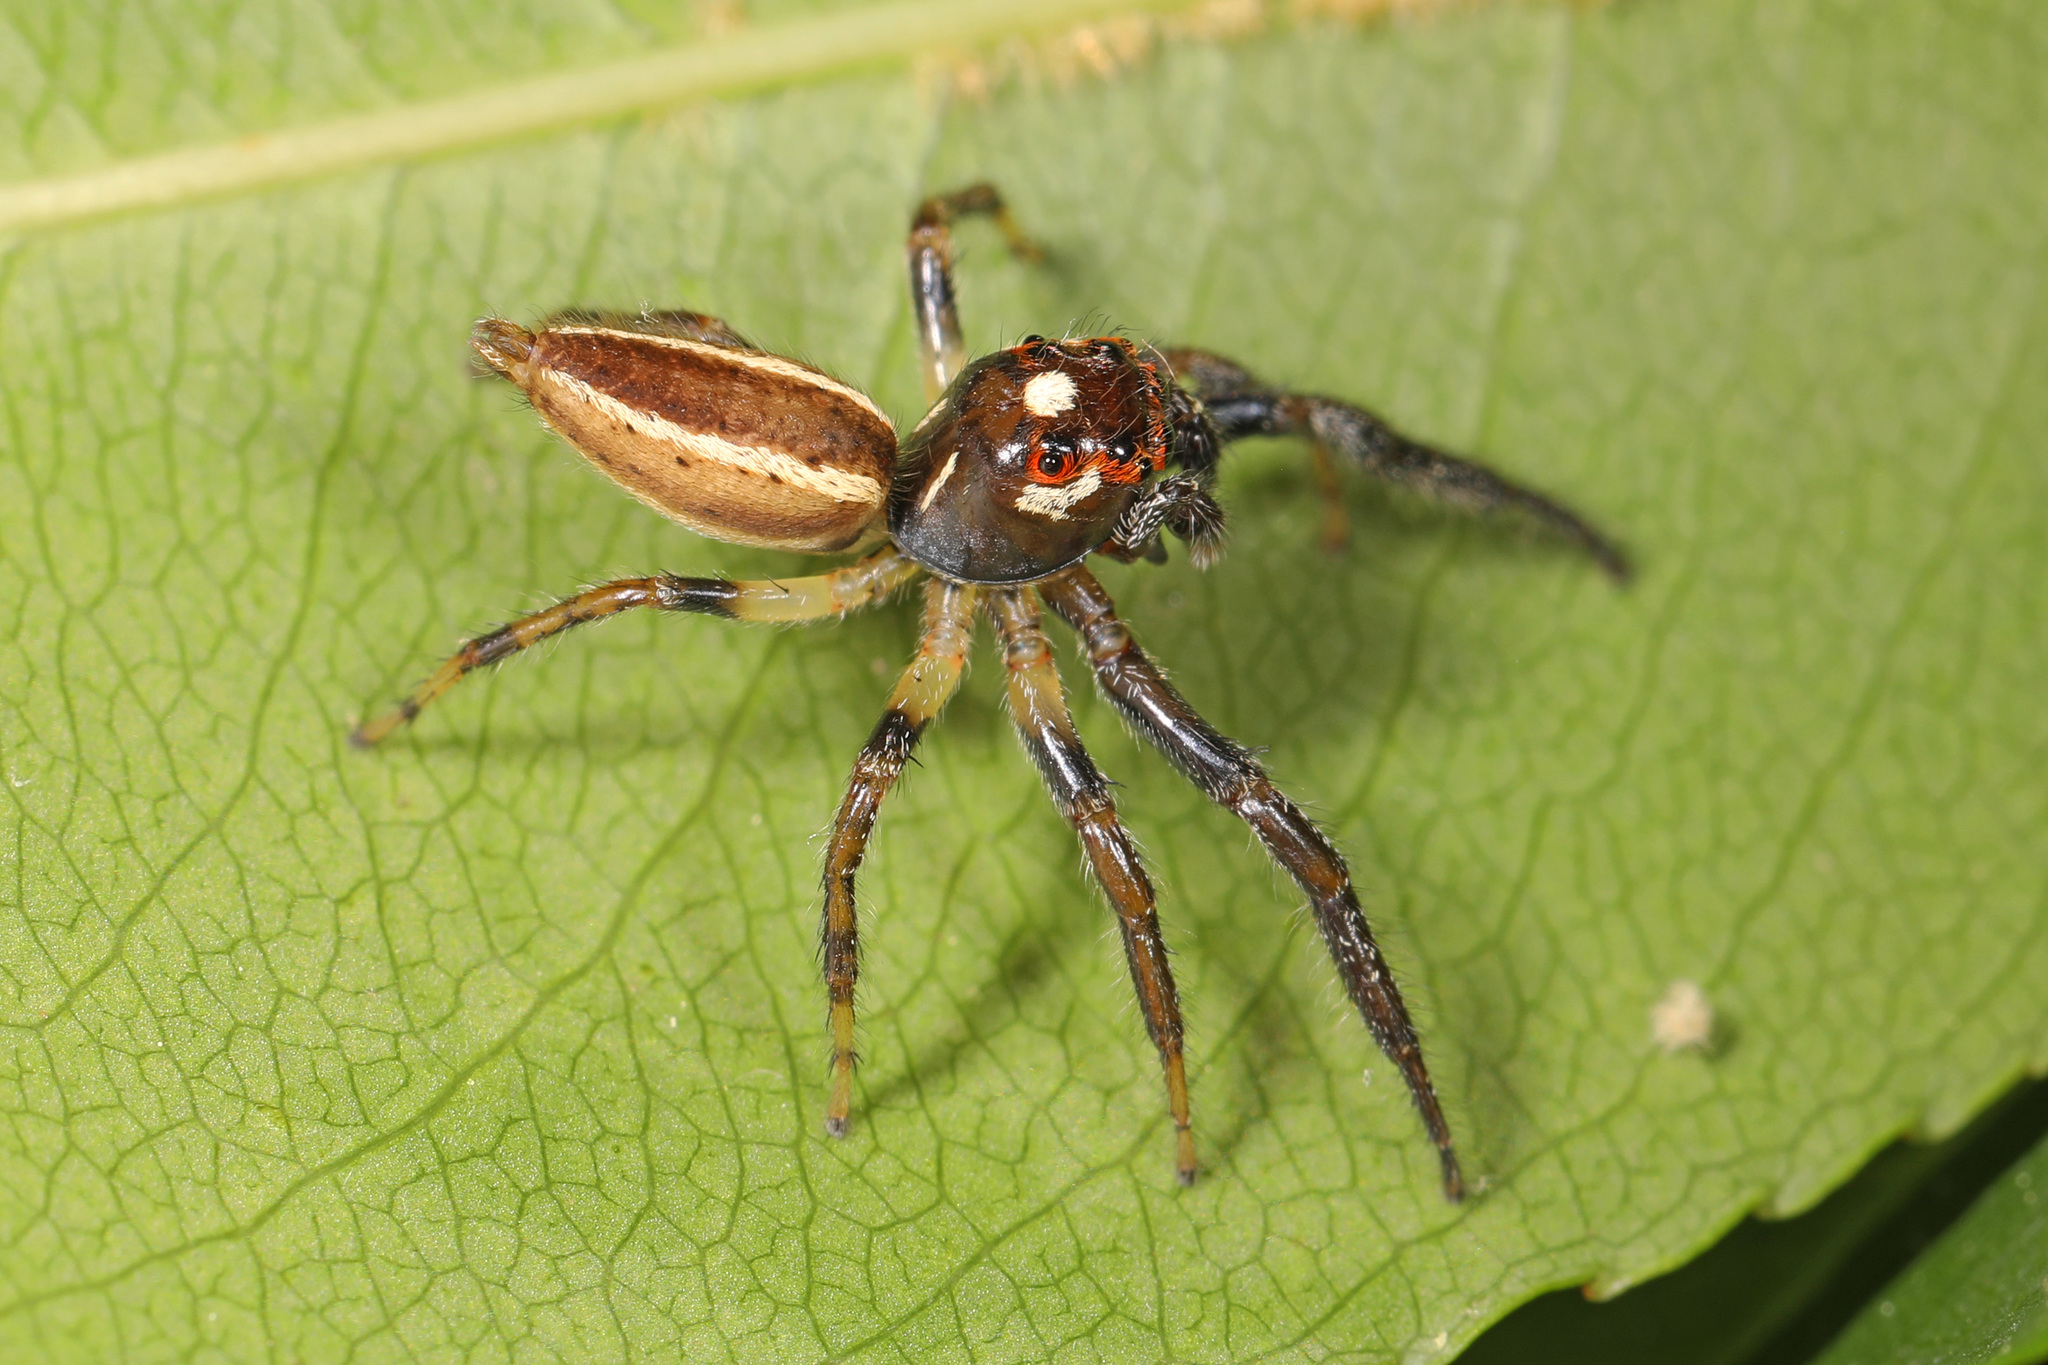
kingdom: Animalia
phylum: Arthropoda
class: Arachnida
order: Araneae
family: Salticidae
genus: Colonus
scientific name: Colonus sylvanus
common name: Jumping spiders
